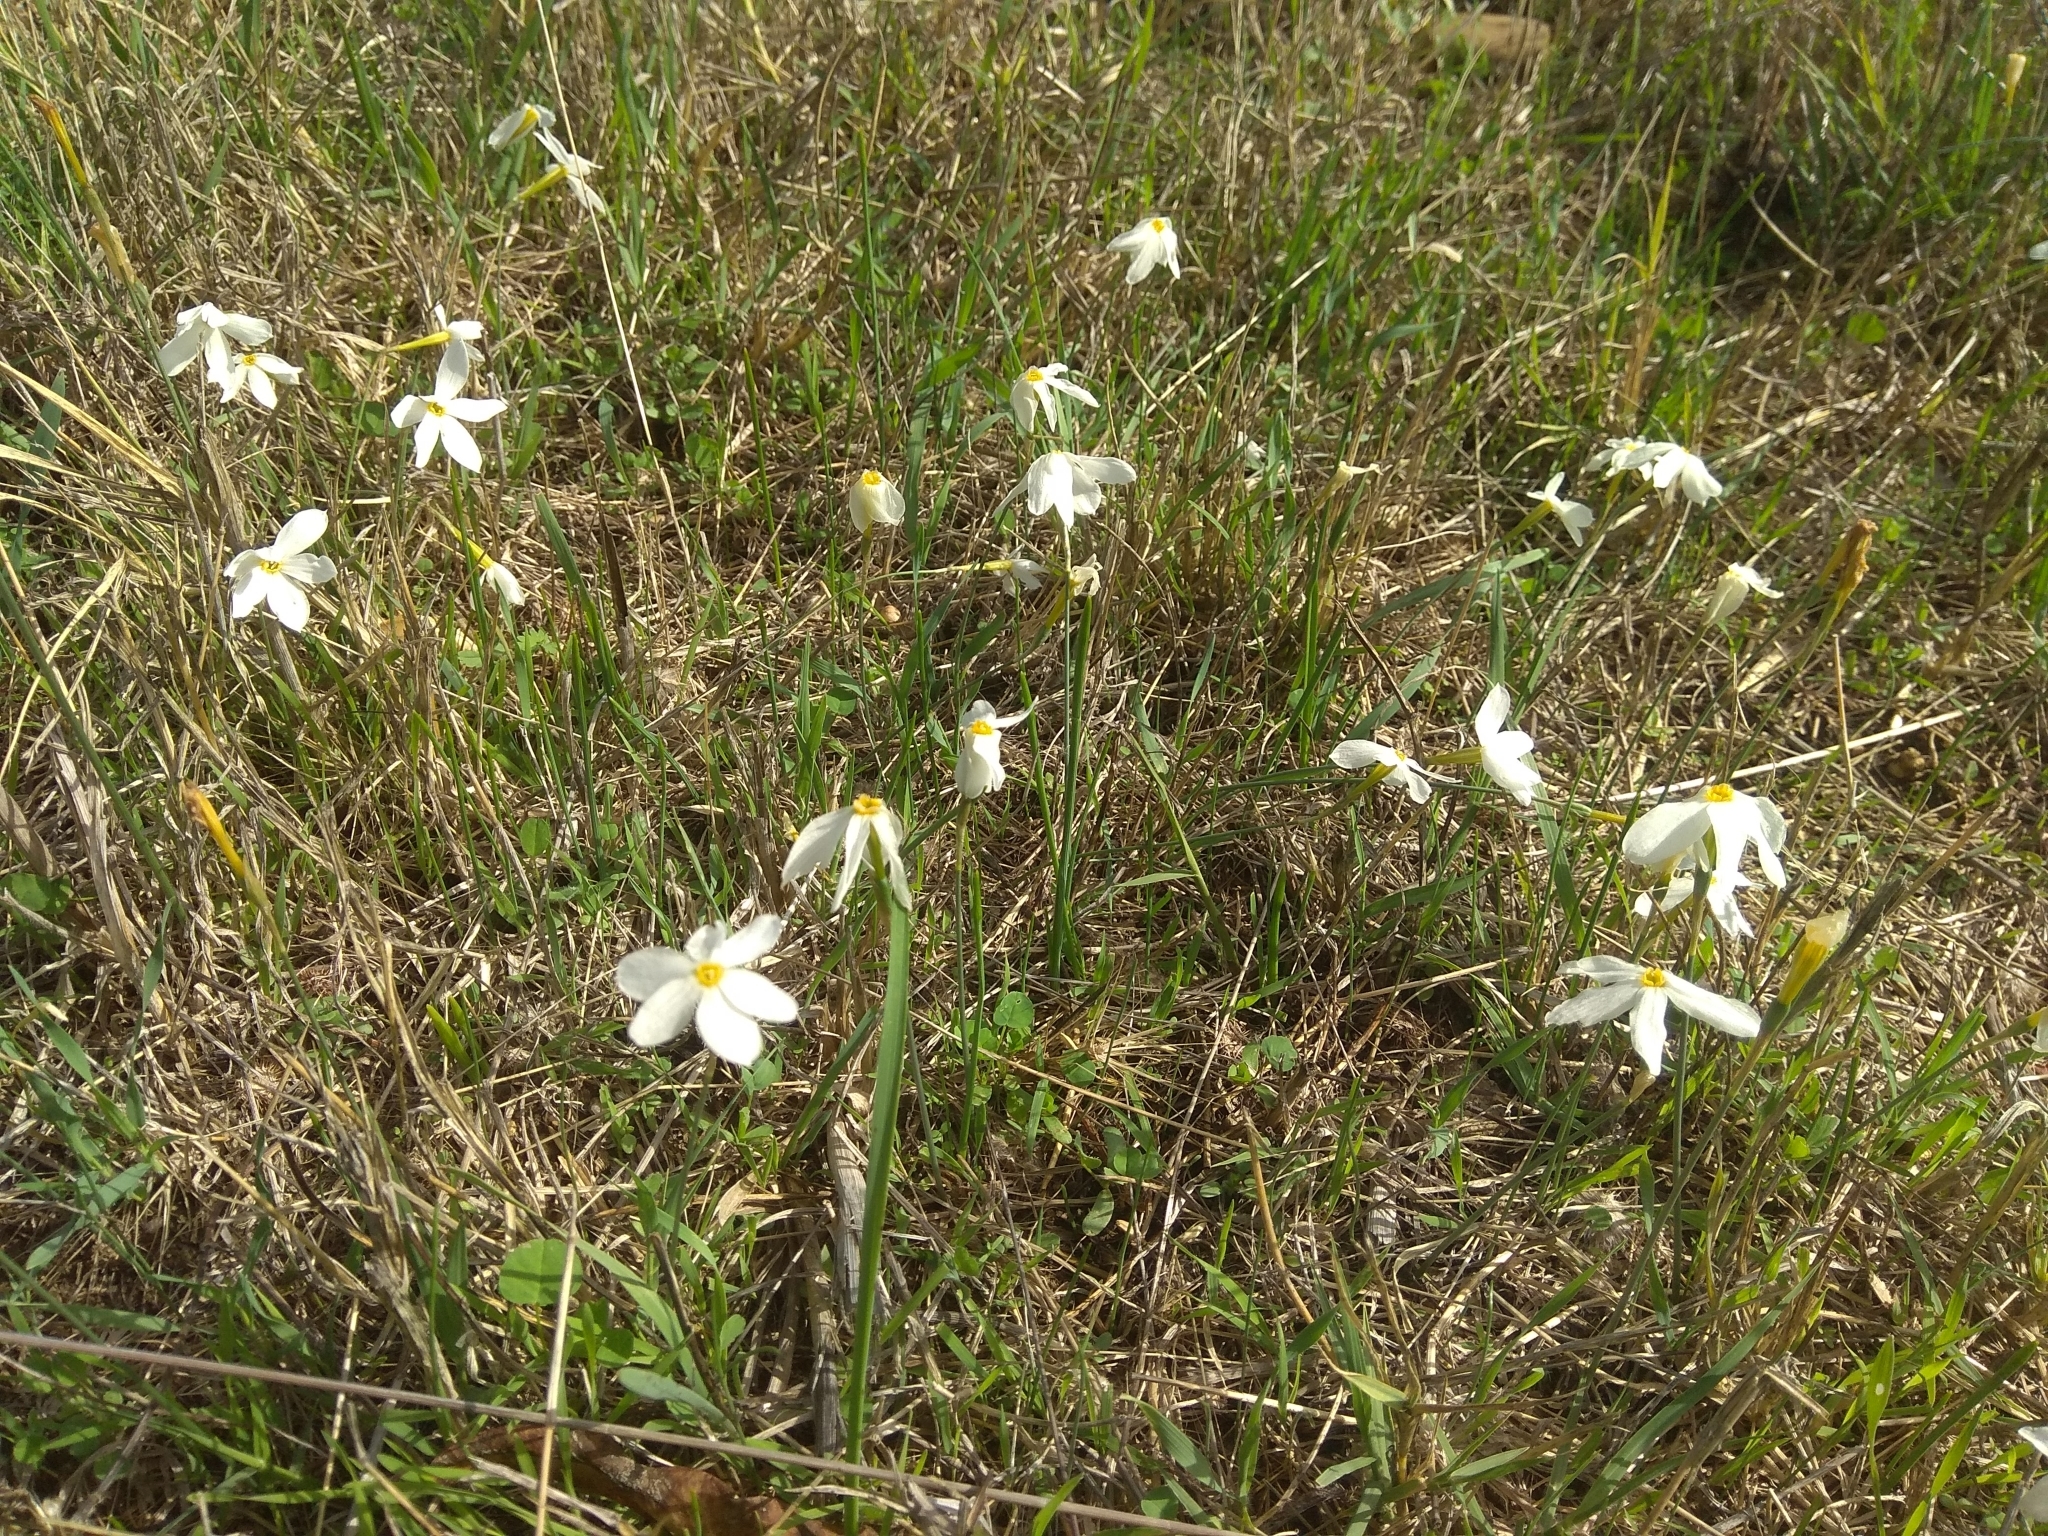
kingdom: Plantae
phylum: Tracheophyta
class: Liliopsida
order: Asparagales
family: Amaryllidaceae
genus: Narcissus
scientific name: Narcissus serotinus
